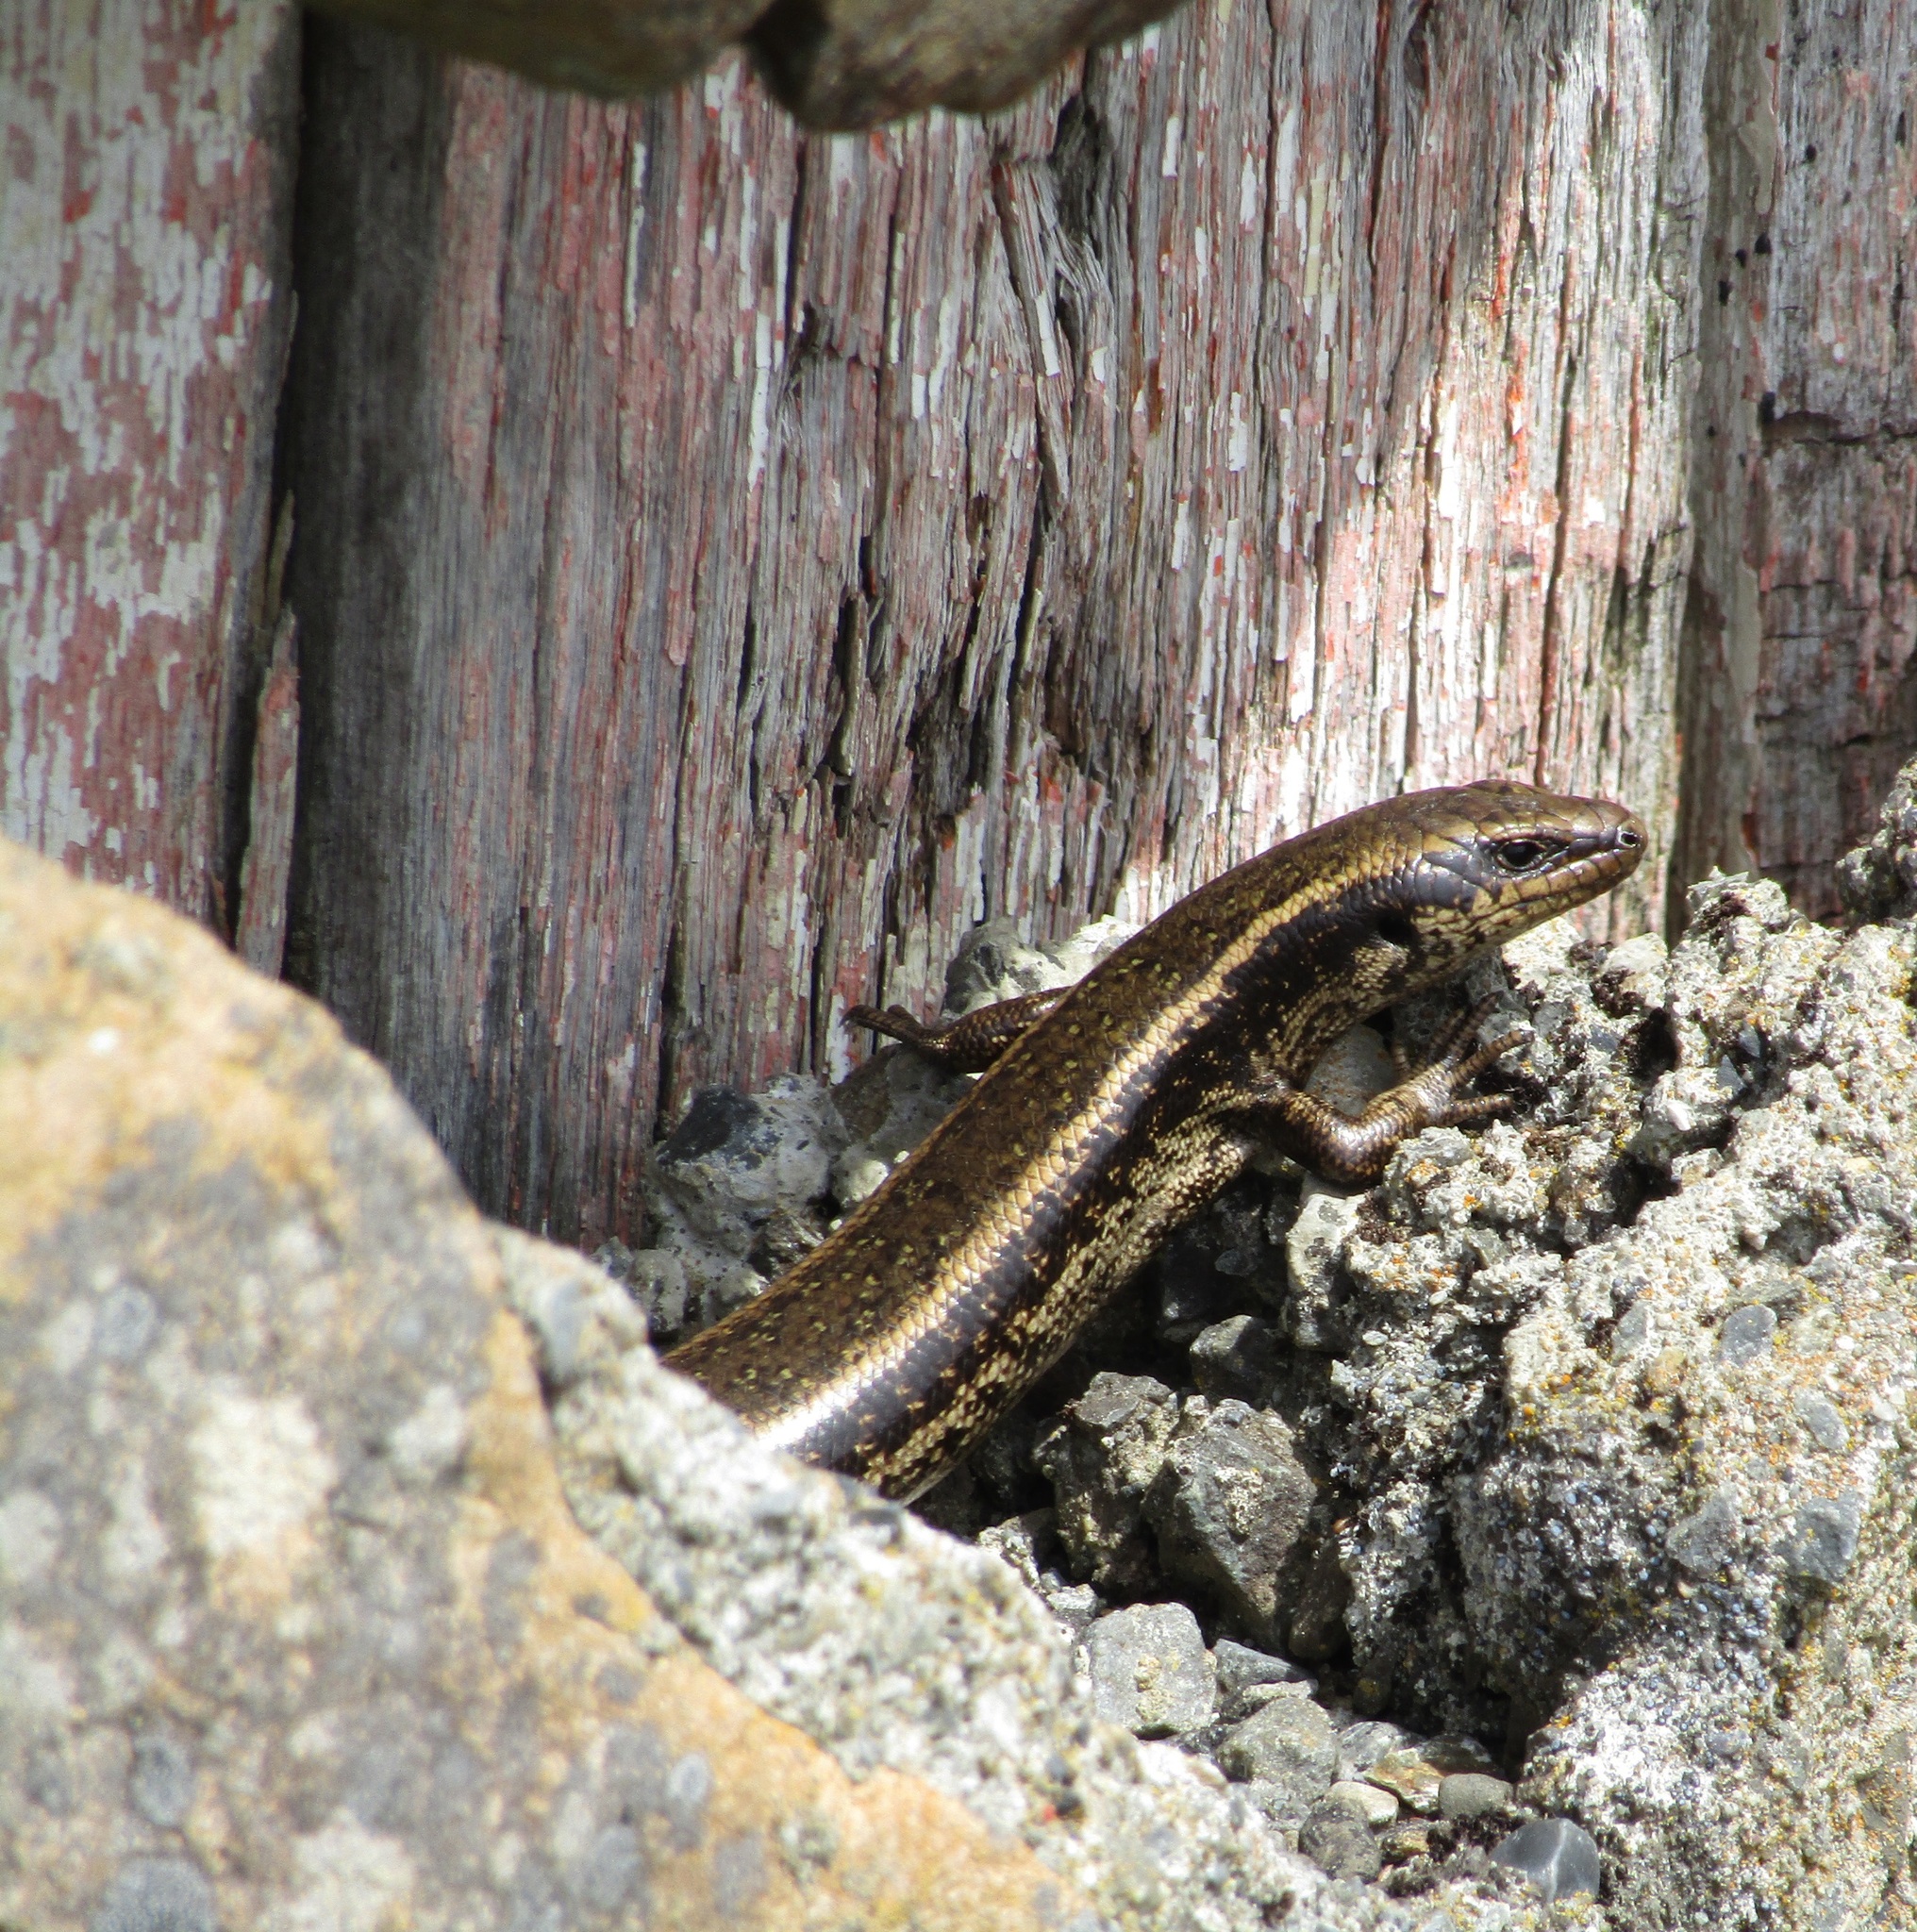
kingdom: Animalia
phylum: Chordata
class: Squamata
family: Scincidae
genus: Oligosoma
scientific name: Oligosoma kokowai
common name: Northern spotted skink
